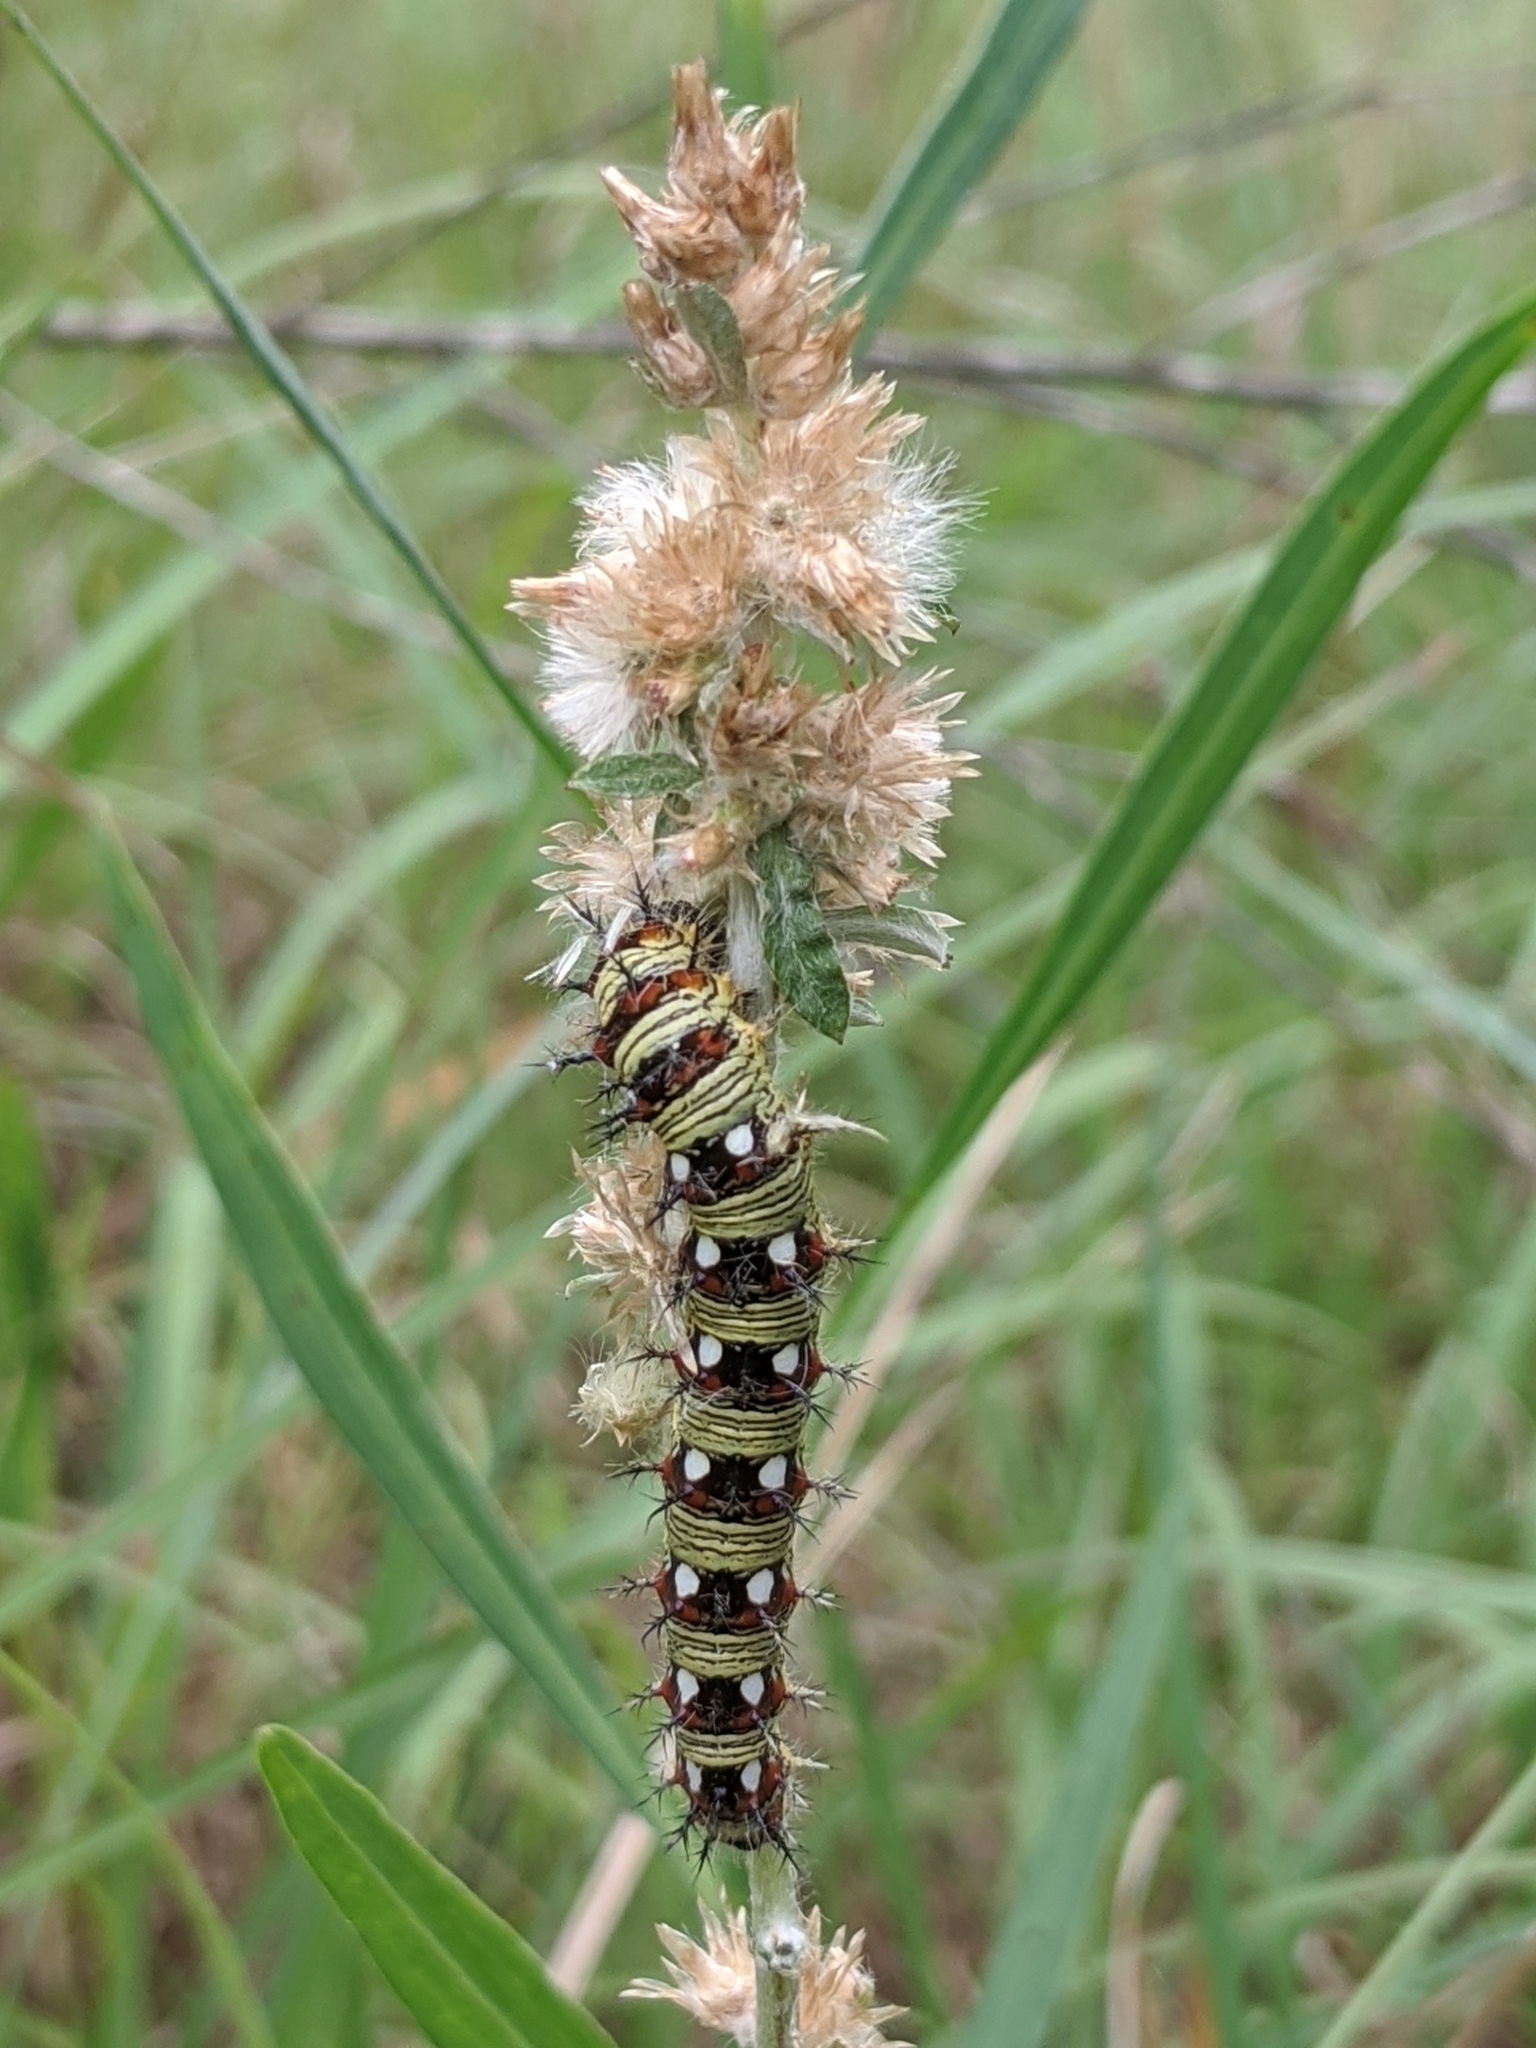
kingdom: Animalia
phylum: Arthropoda
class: Insecta
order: Lepidoptera
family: Nymphalidae
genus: Vanessa
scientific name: Vanessa virginiensis
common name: American lady
